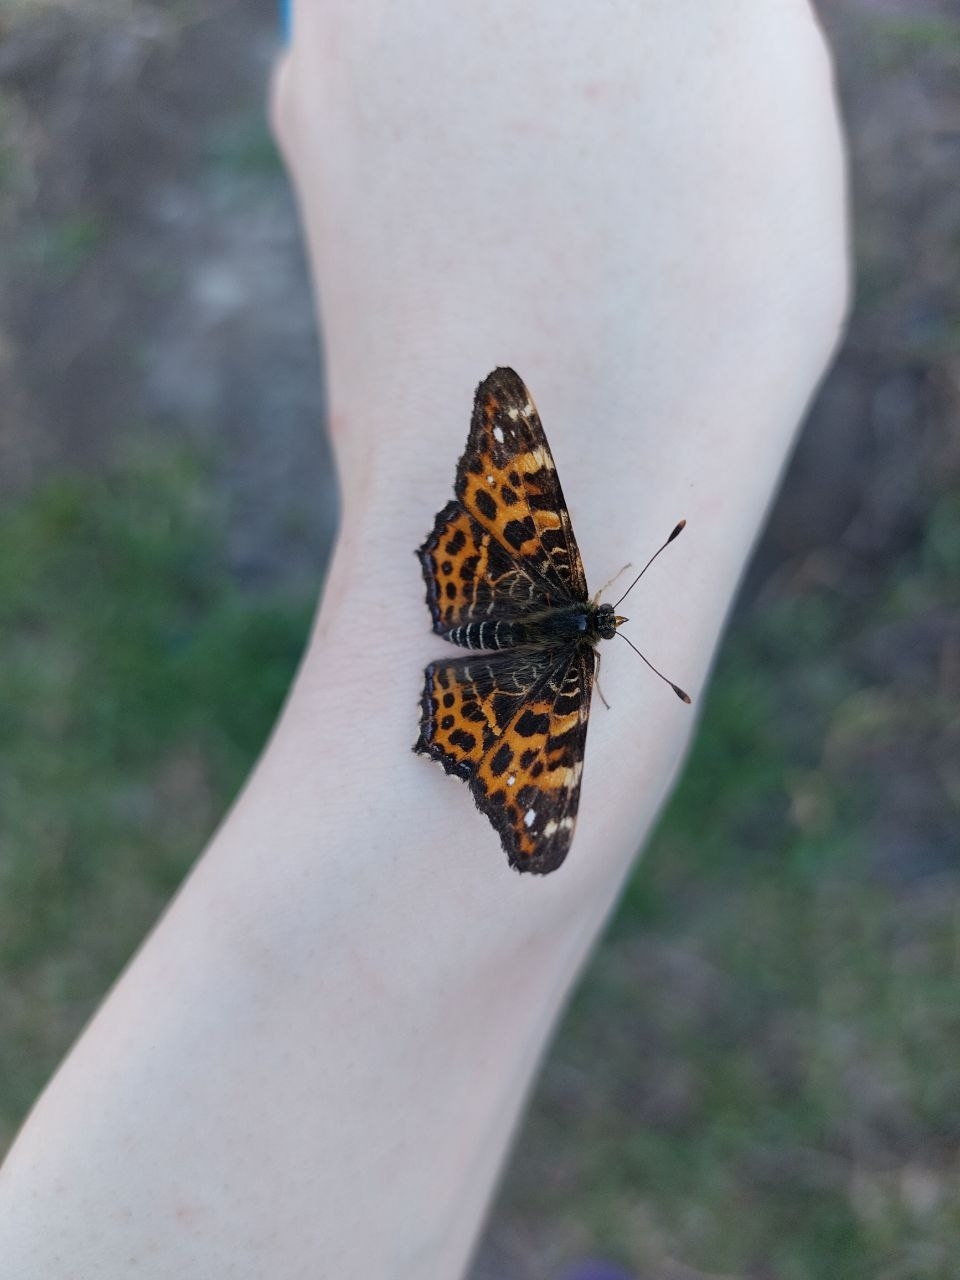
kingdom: Animalia
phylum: Arthropoda
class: Insecta
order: Lepidoptera
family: Nymphalidae
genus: Araschnia
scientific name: Araschnia levana
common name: Map butterfly
